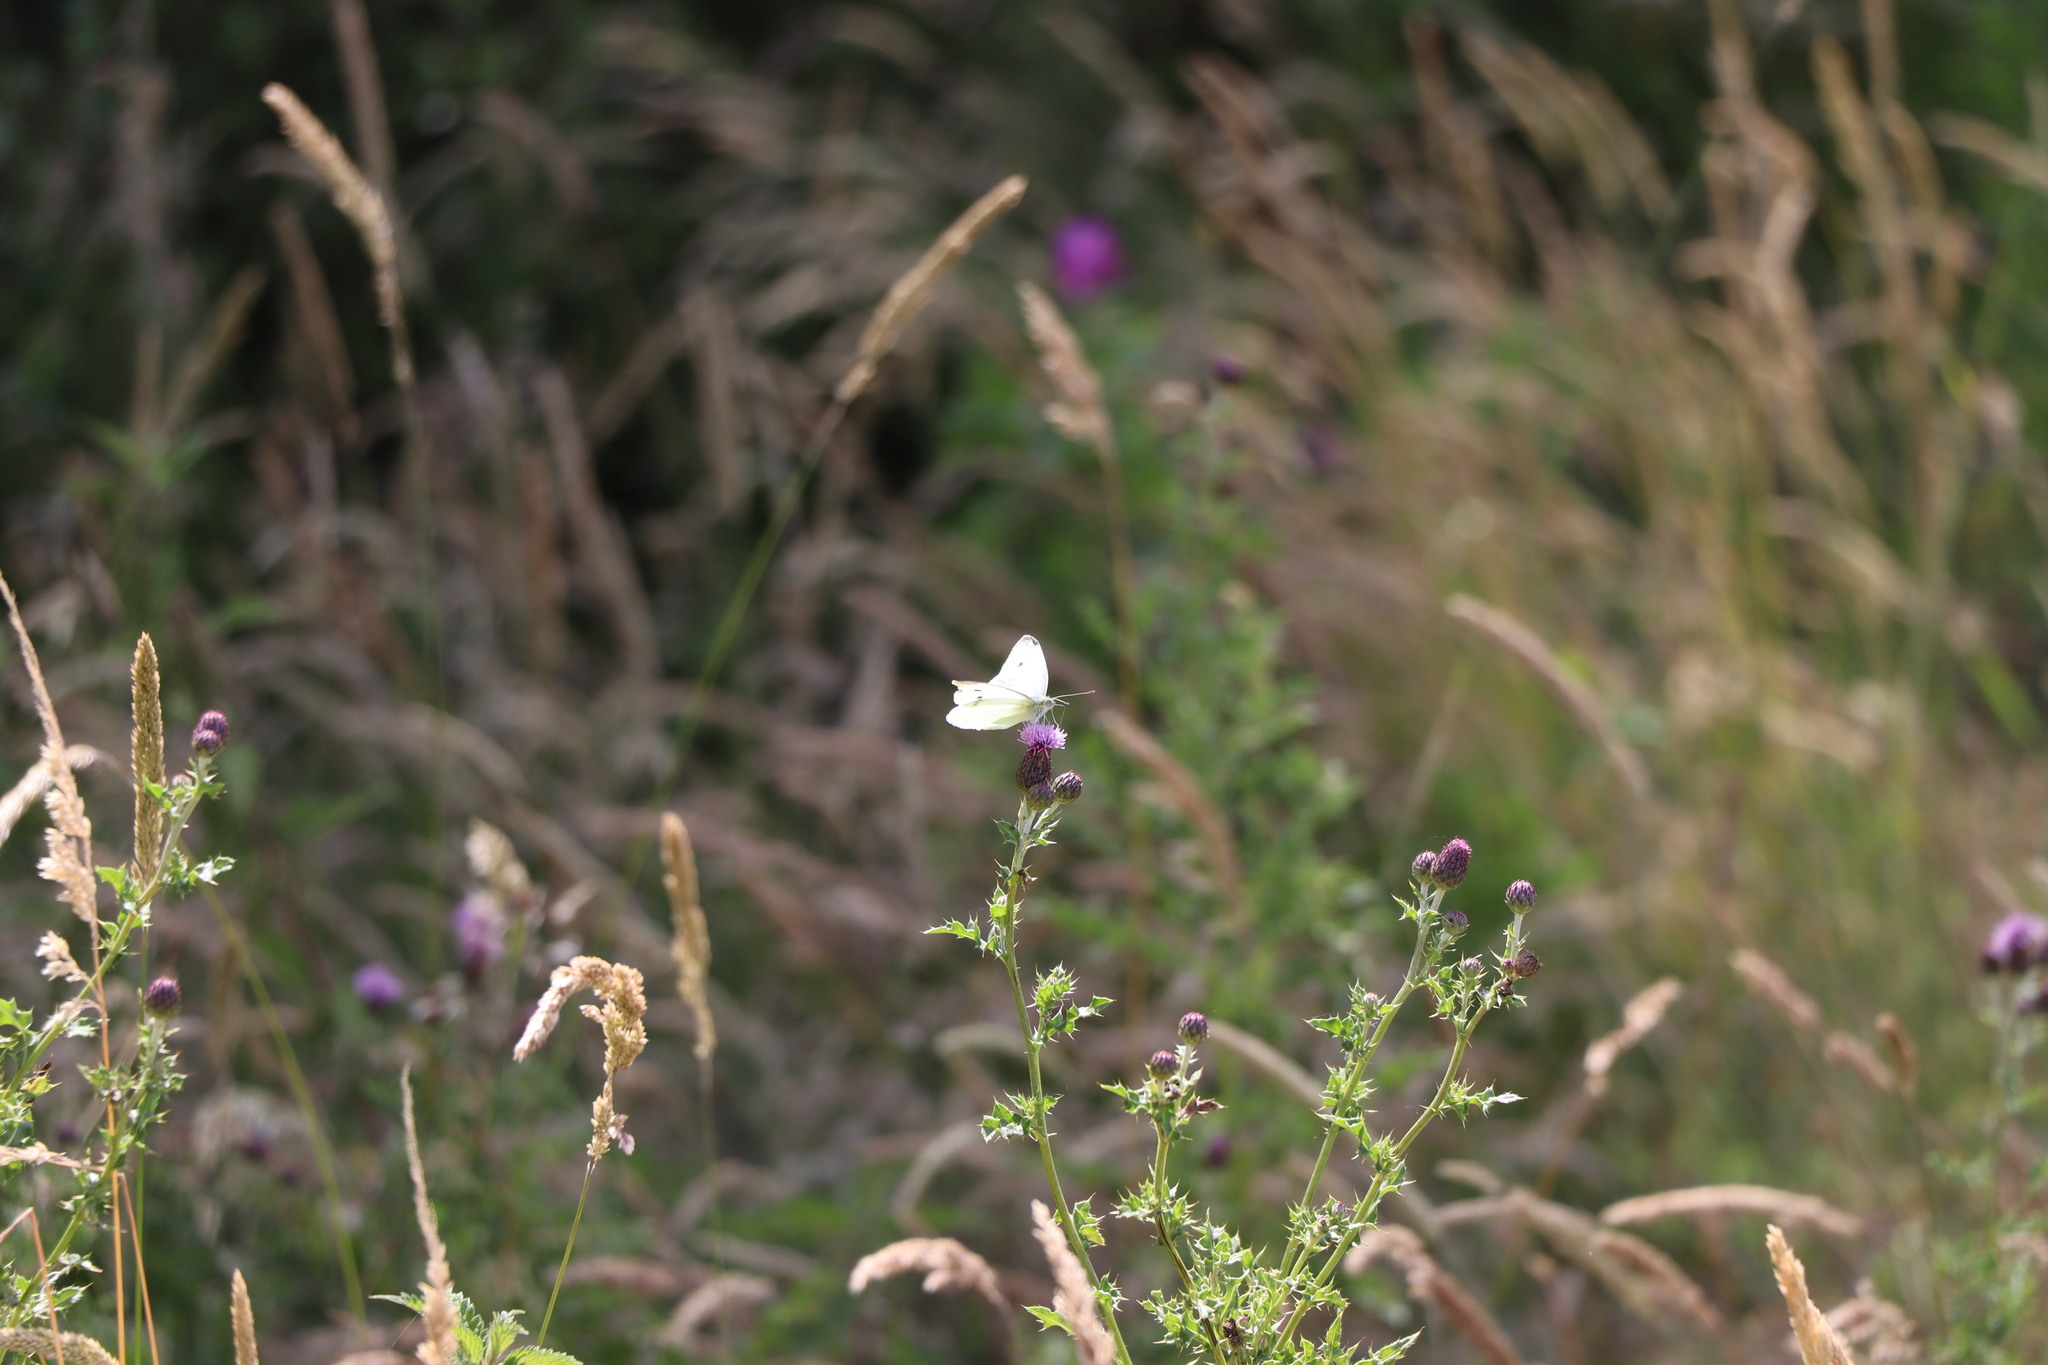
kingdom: Animalia
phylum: Arthropoda
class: Insecta
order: Lepidoptera
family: Pieridae
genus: Pieris
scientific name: Pieris rapae
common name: Small white
